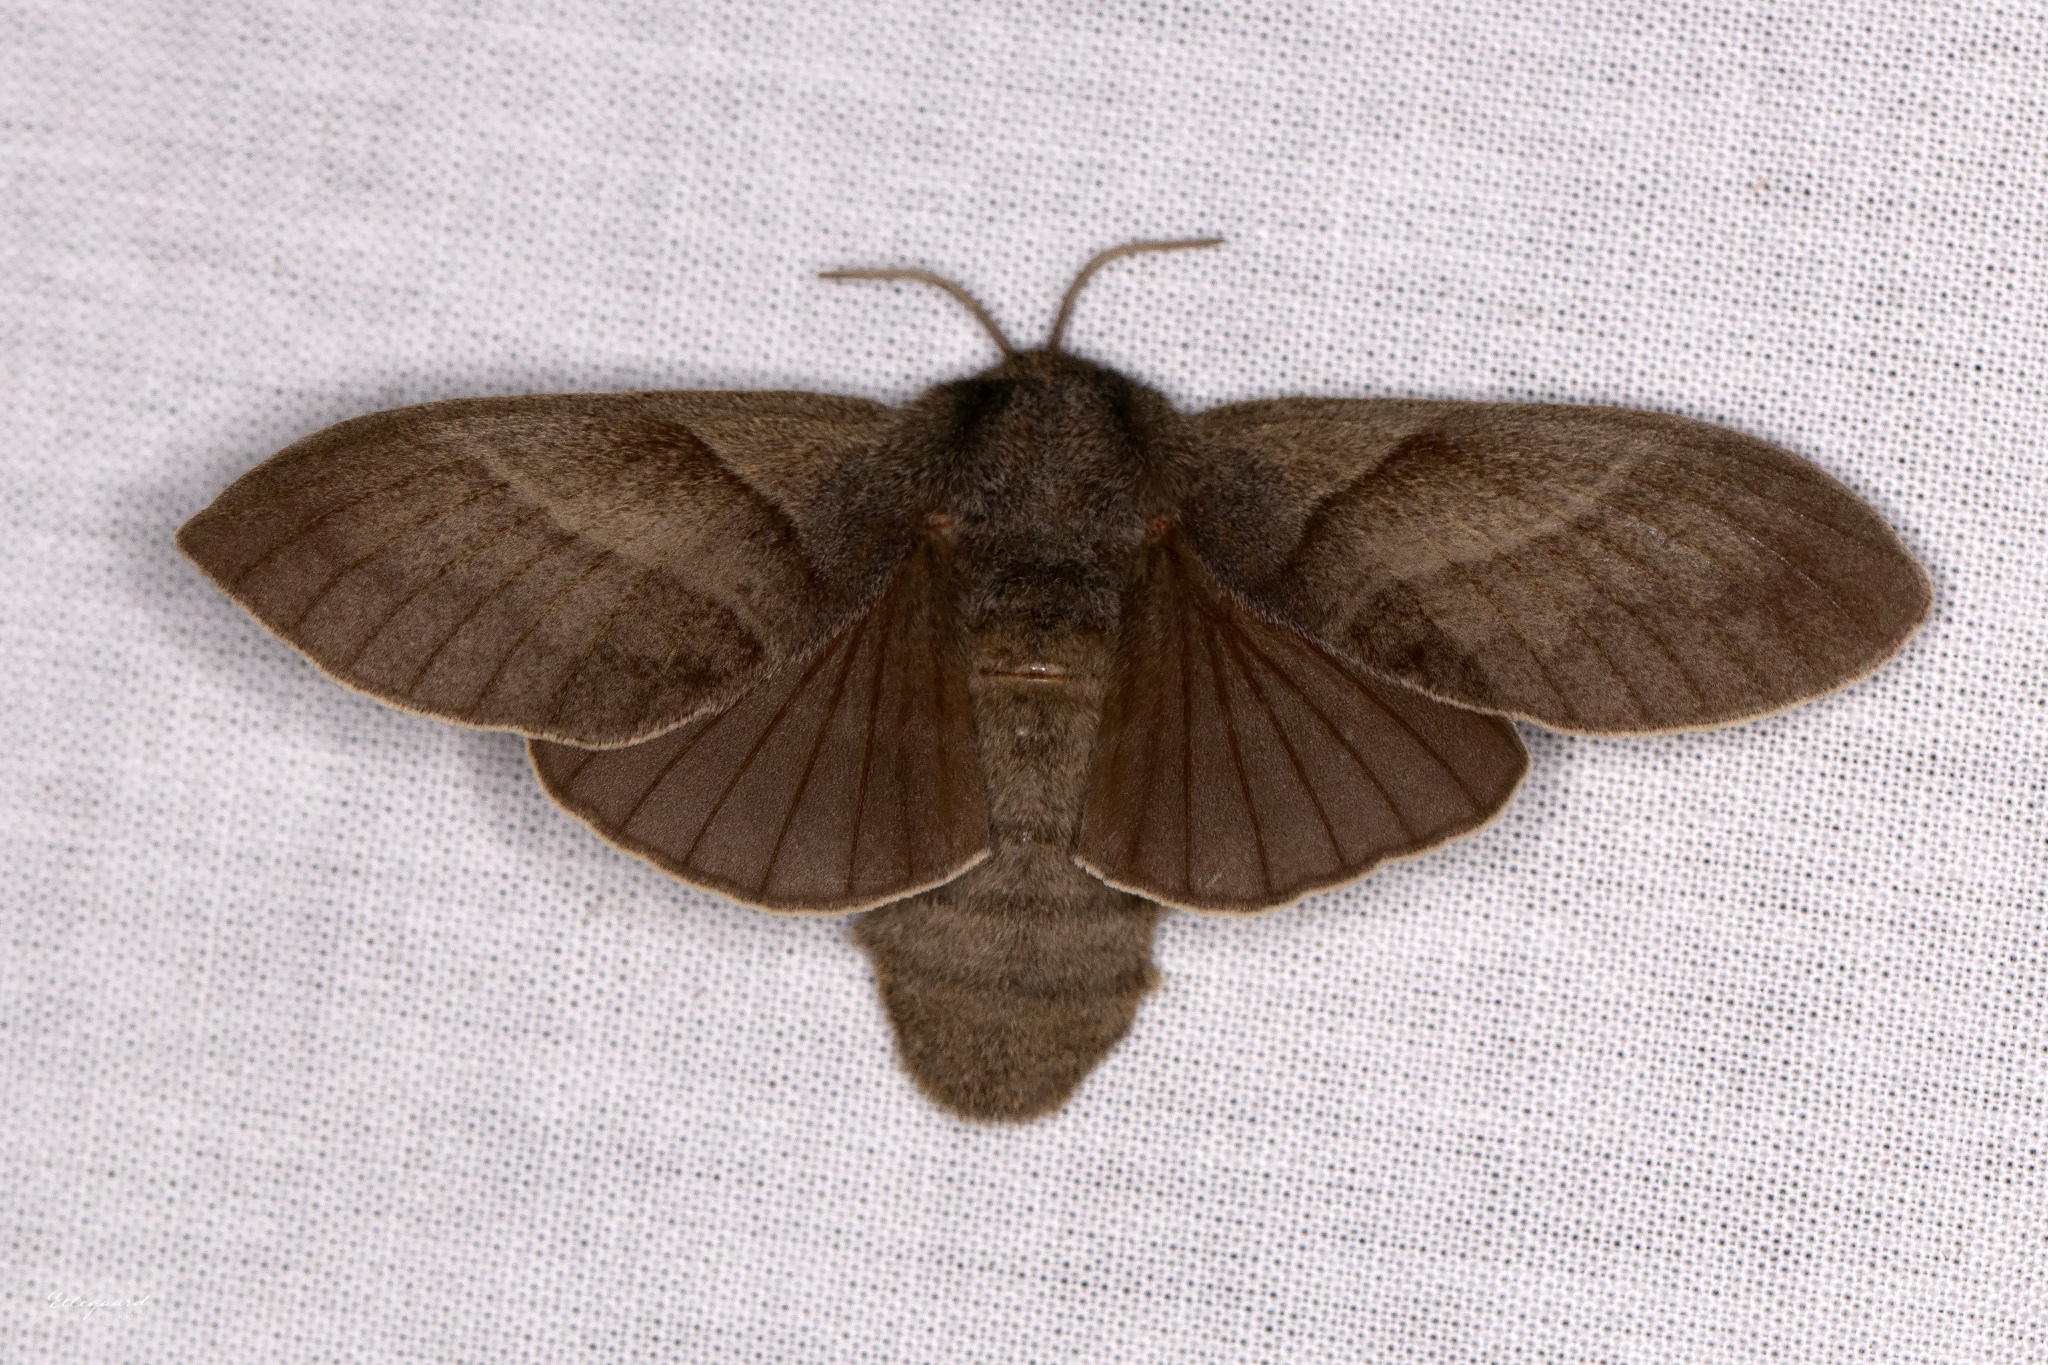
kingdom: Animalia
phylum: Arthropoda
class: Insecta
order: Lepidoptera
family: Lasiocampidae
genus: Macrothylacia
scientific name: Macrothylacia rubi
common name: Fox moth
